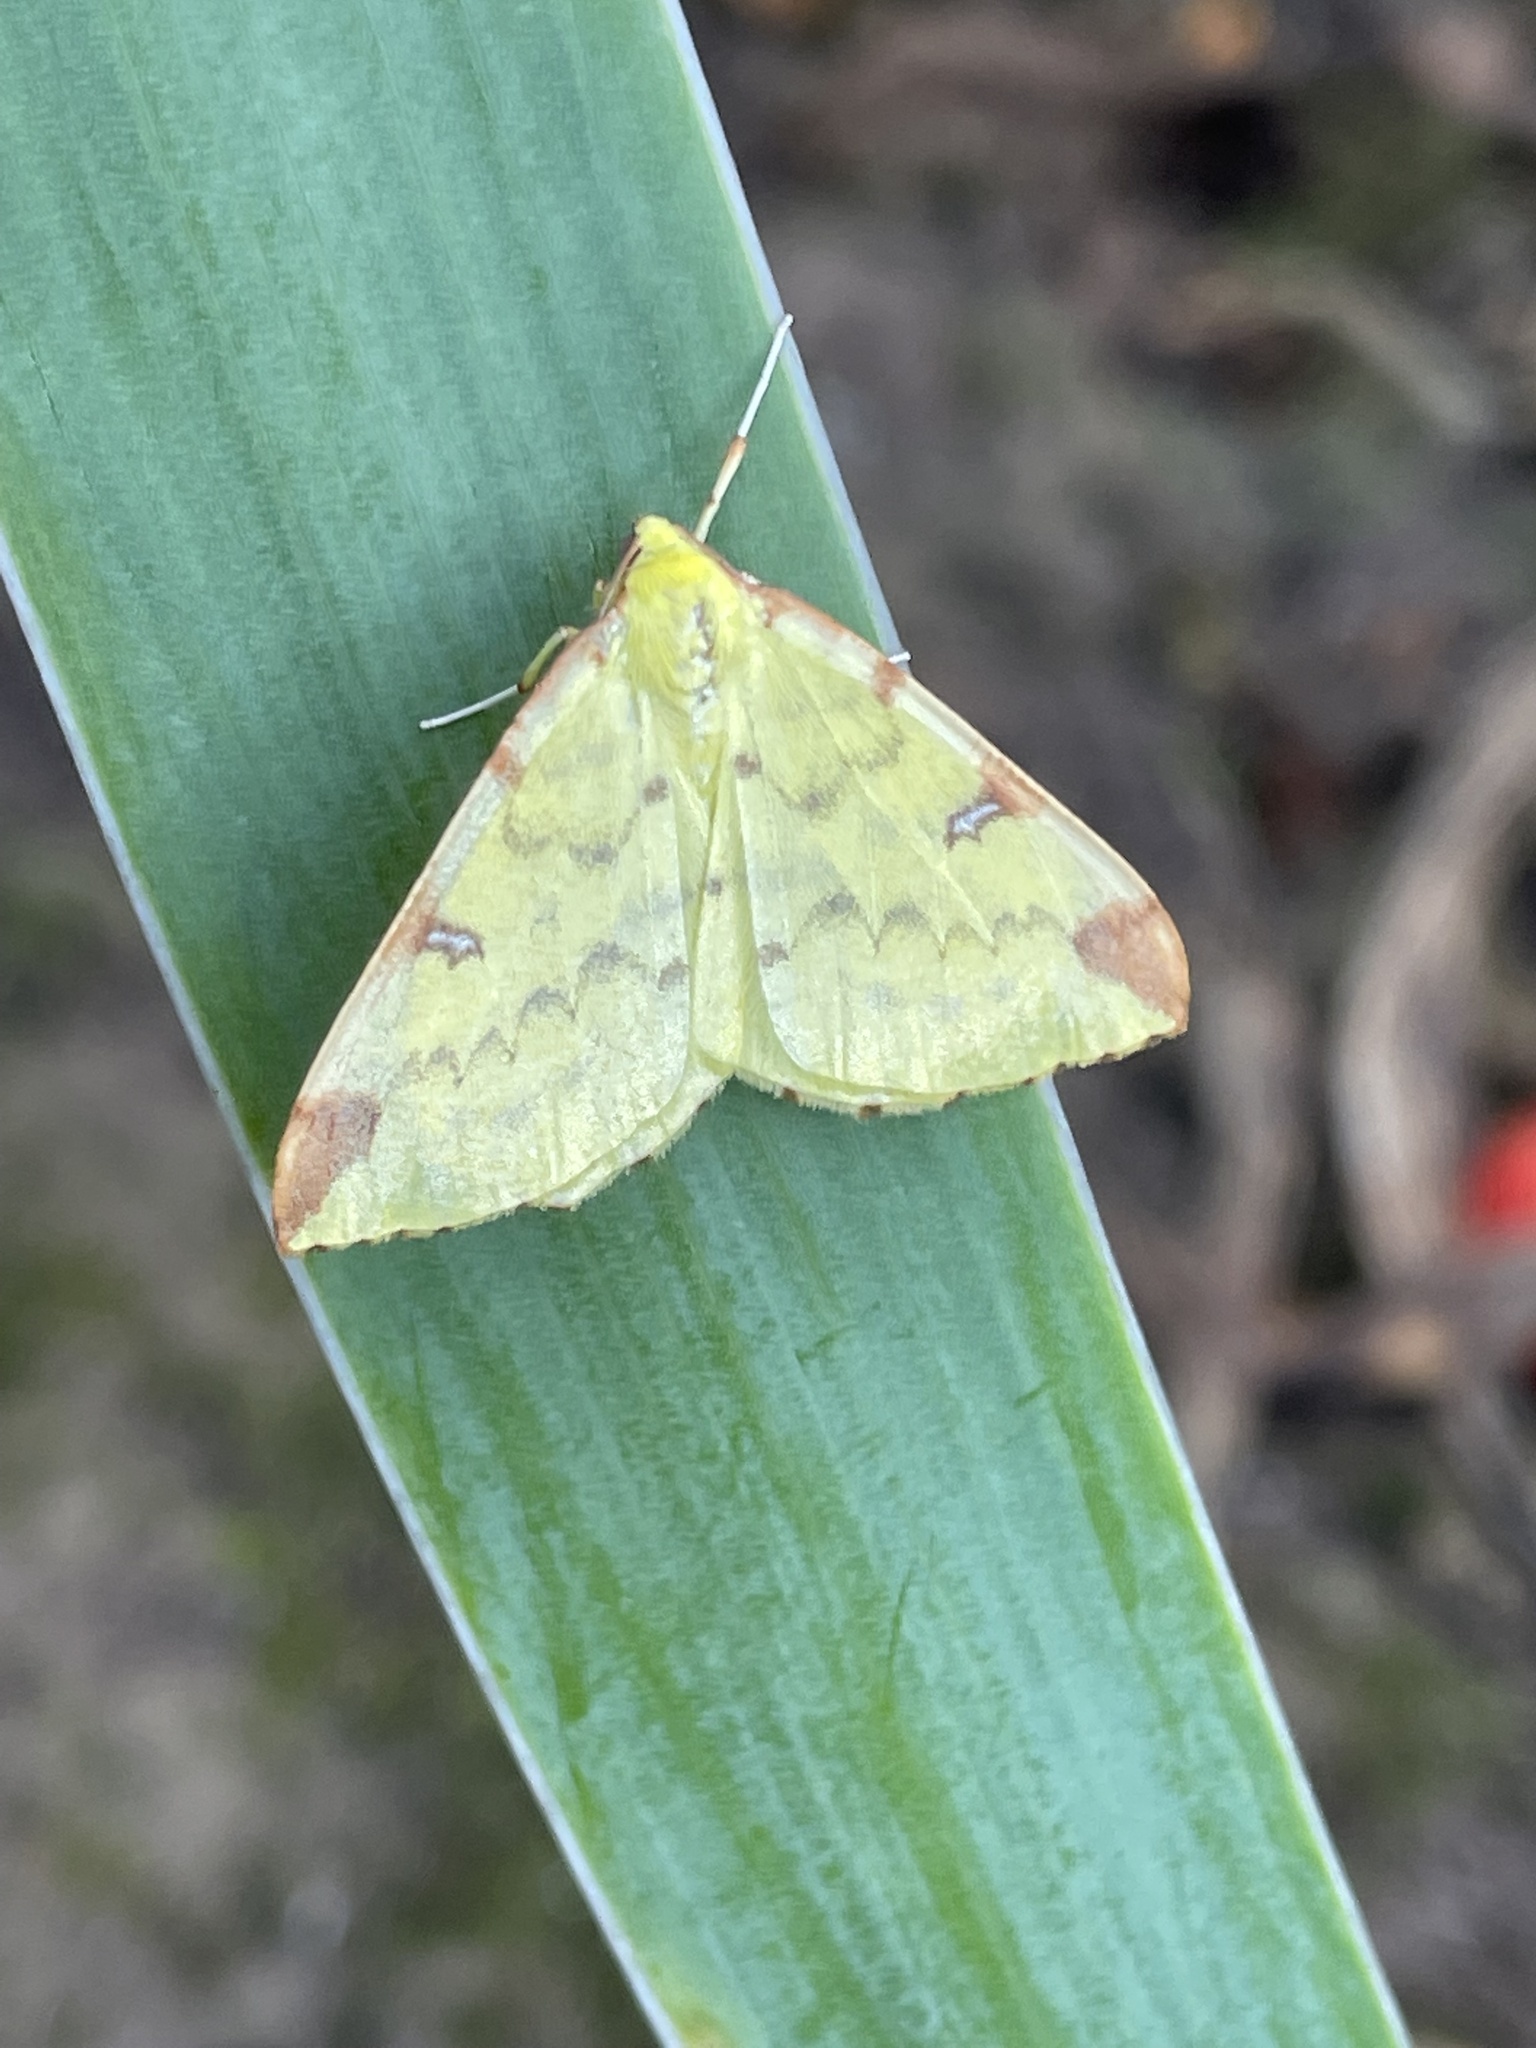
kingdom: Animalia
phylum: Arthropoda
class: Insecta
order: Lepidoptera
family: Geometridae
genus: Opisthograptis
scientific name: Opisthograptis luteolata
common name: Brimstone moth
